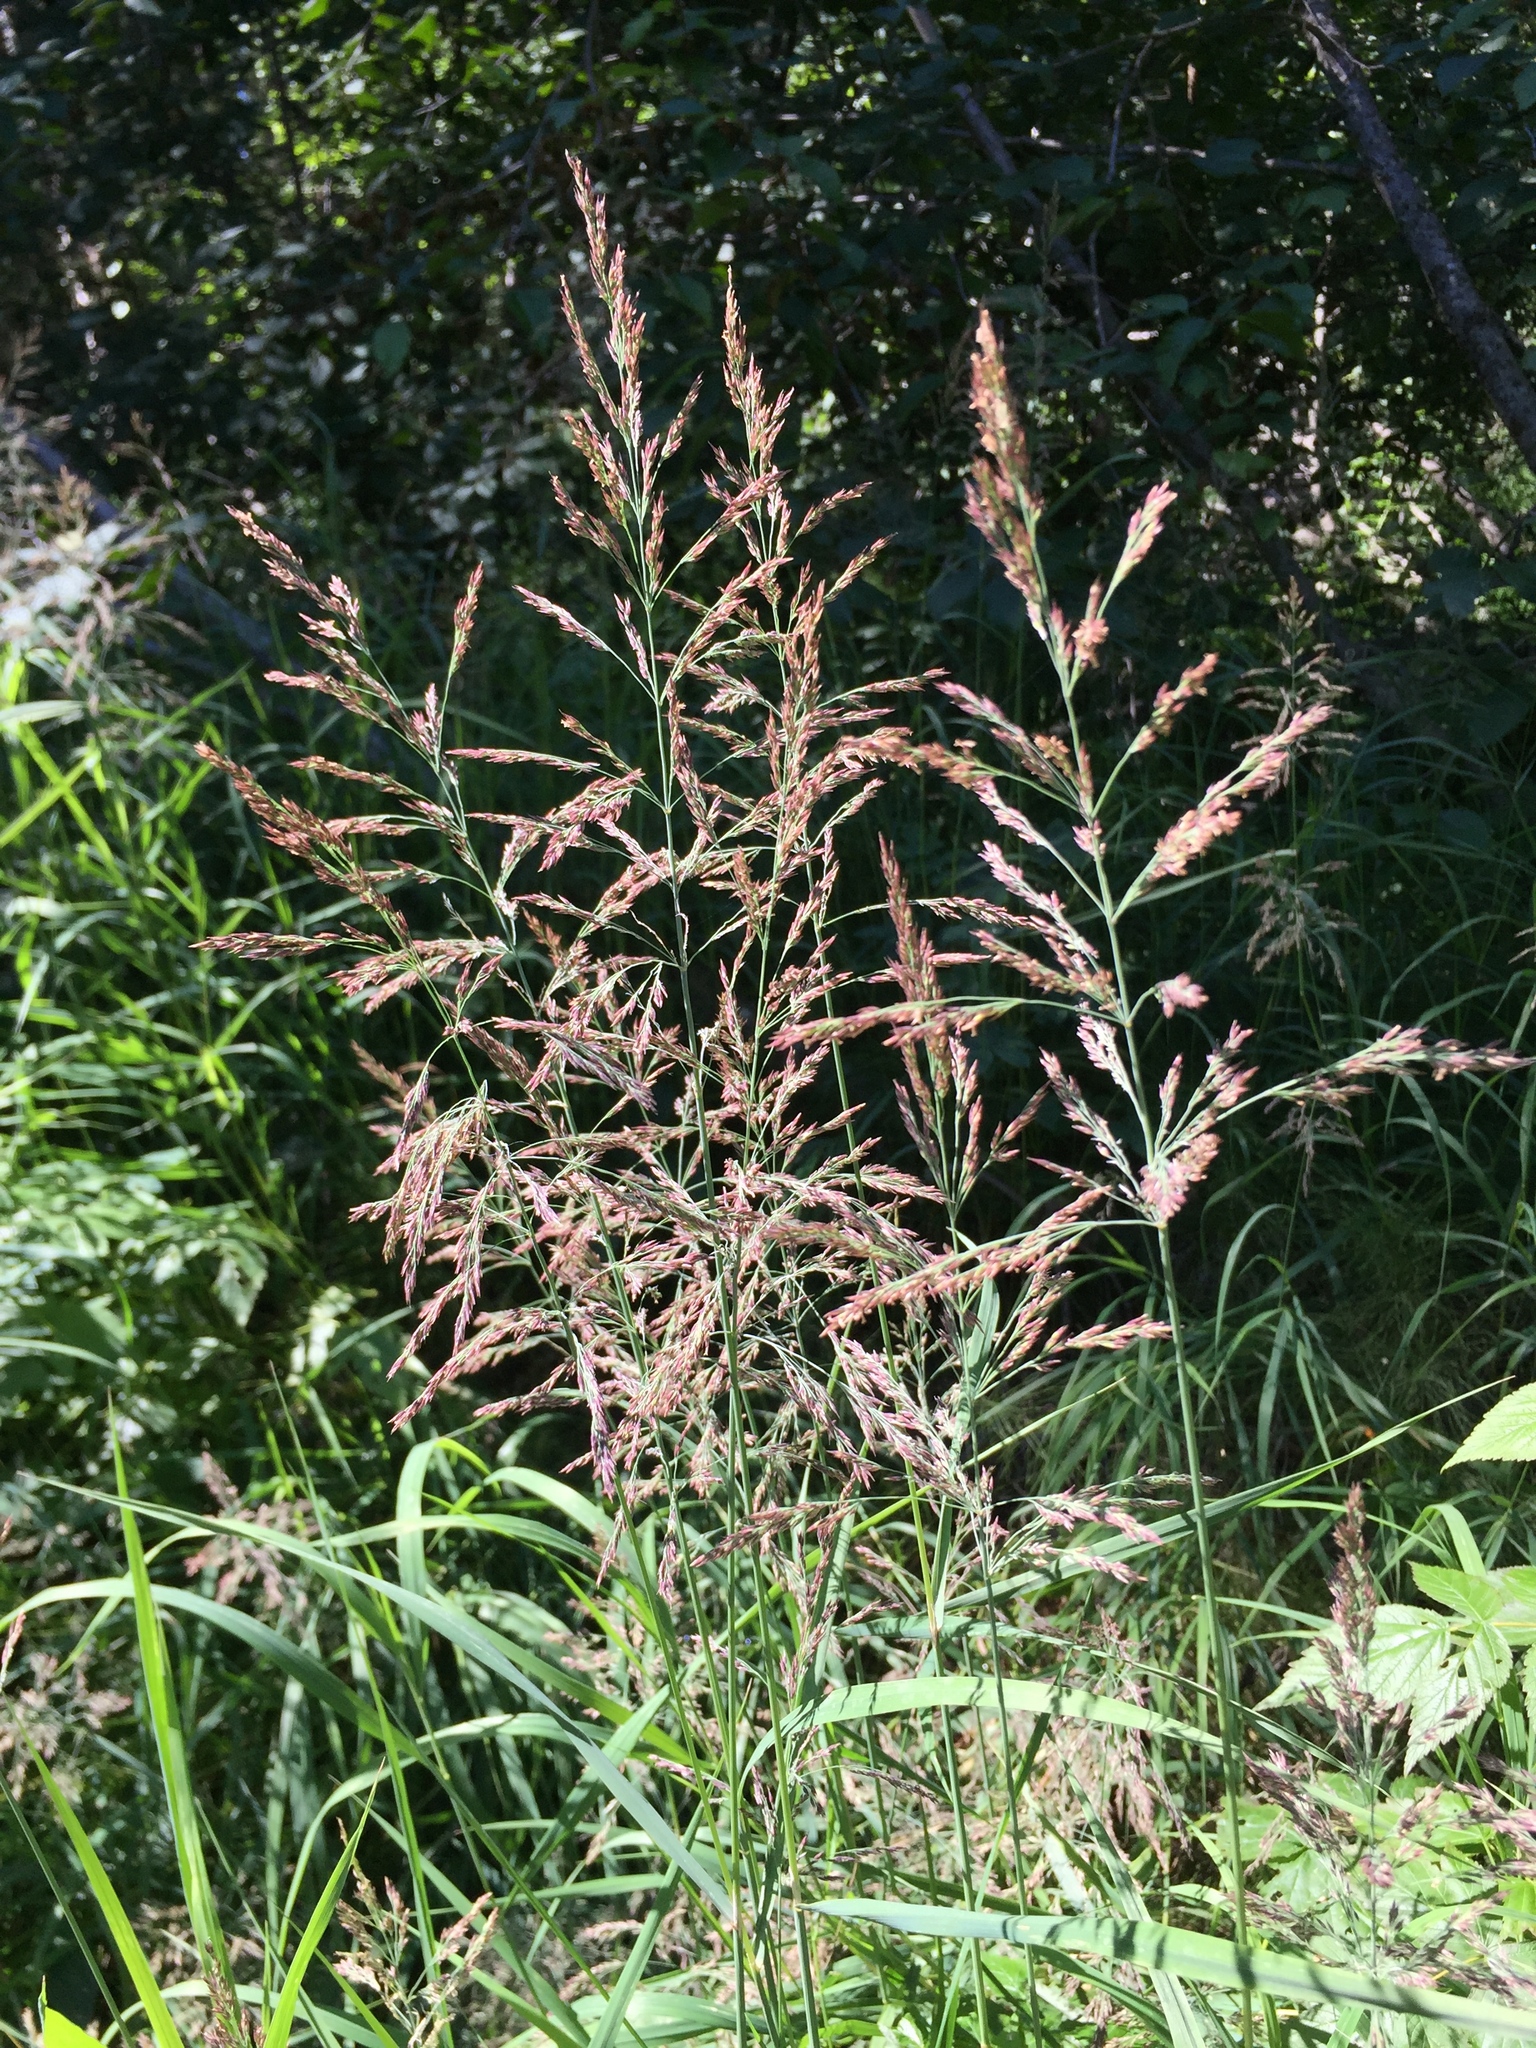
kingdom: Plantae
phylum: Tracheophyta
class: Liliopsida
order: Poales
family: Poaceae
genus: Calamagrostis
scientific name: Calamagrostis canadensis
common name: Canada bluejoint
